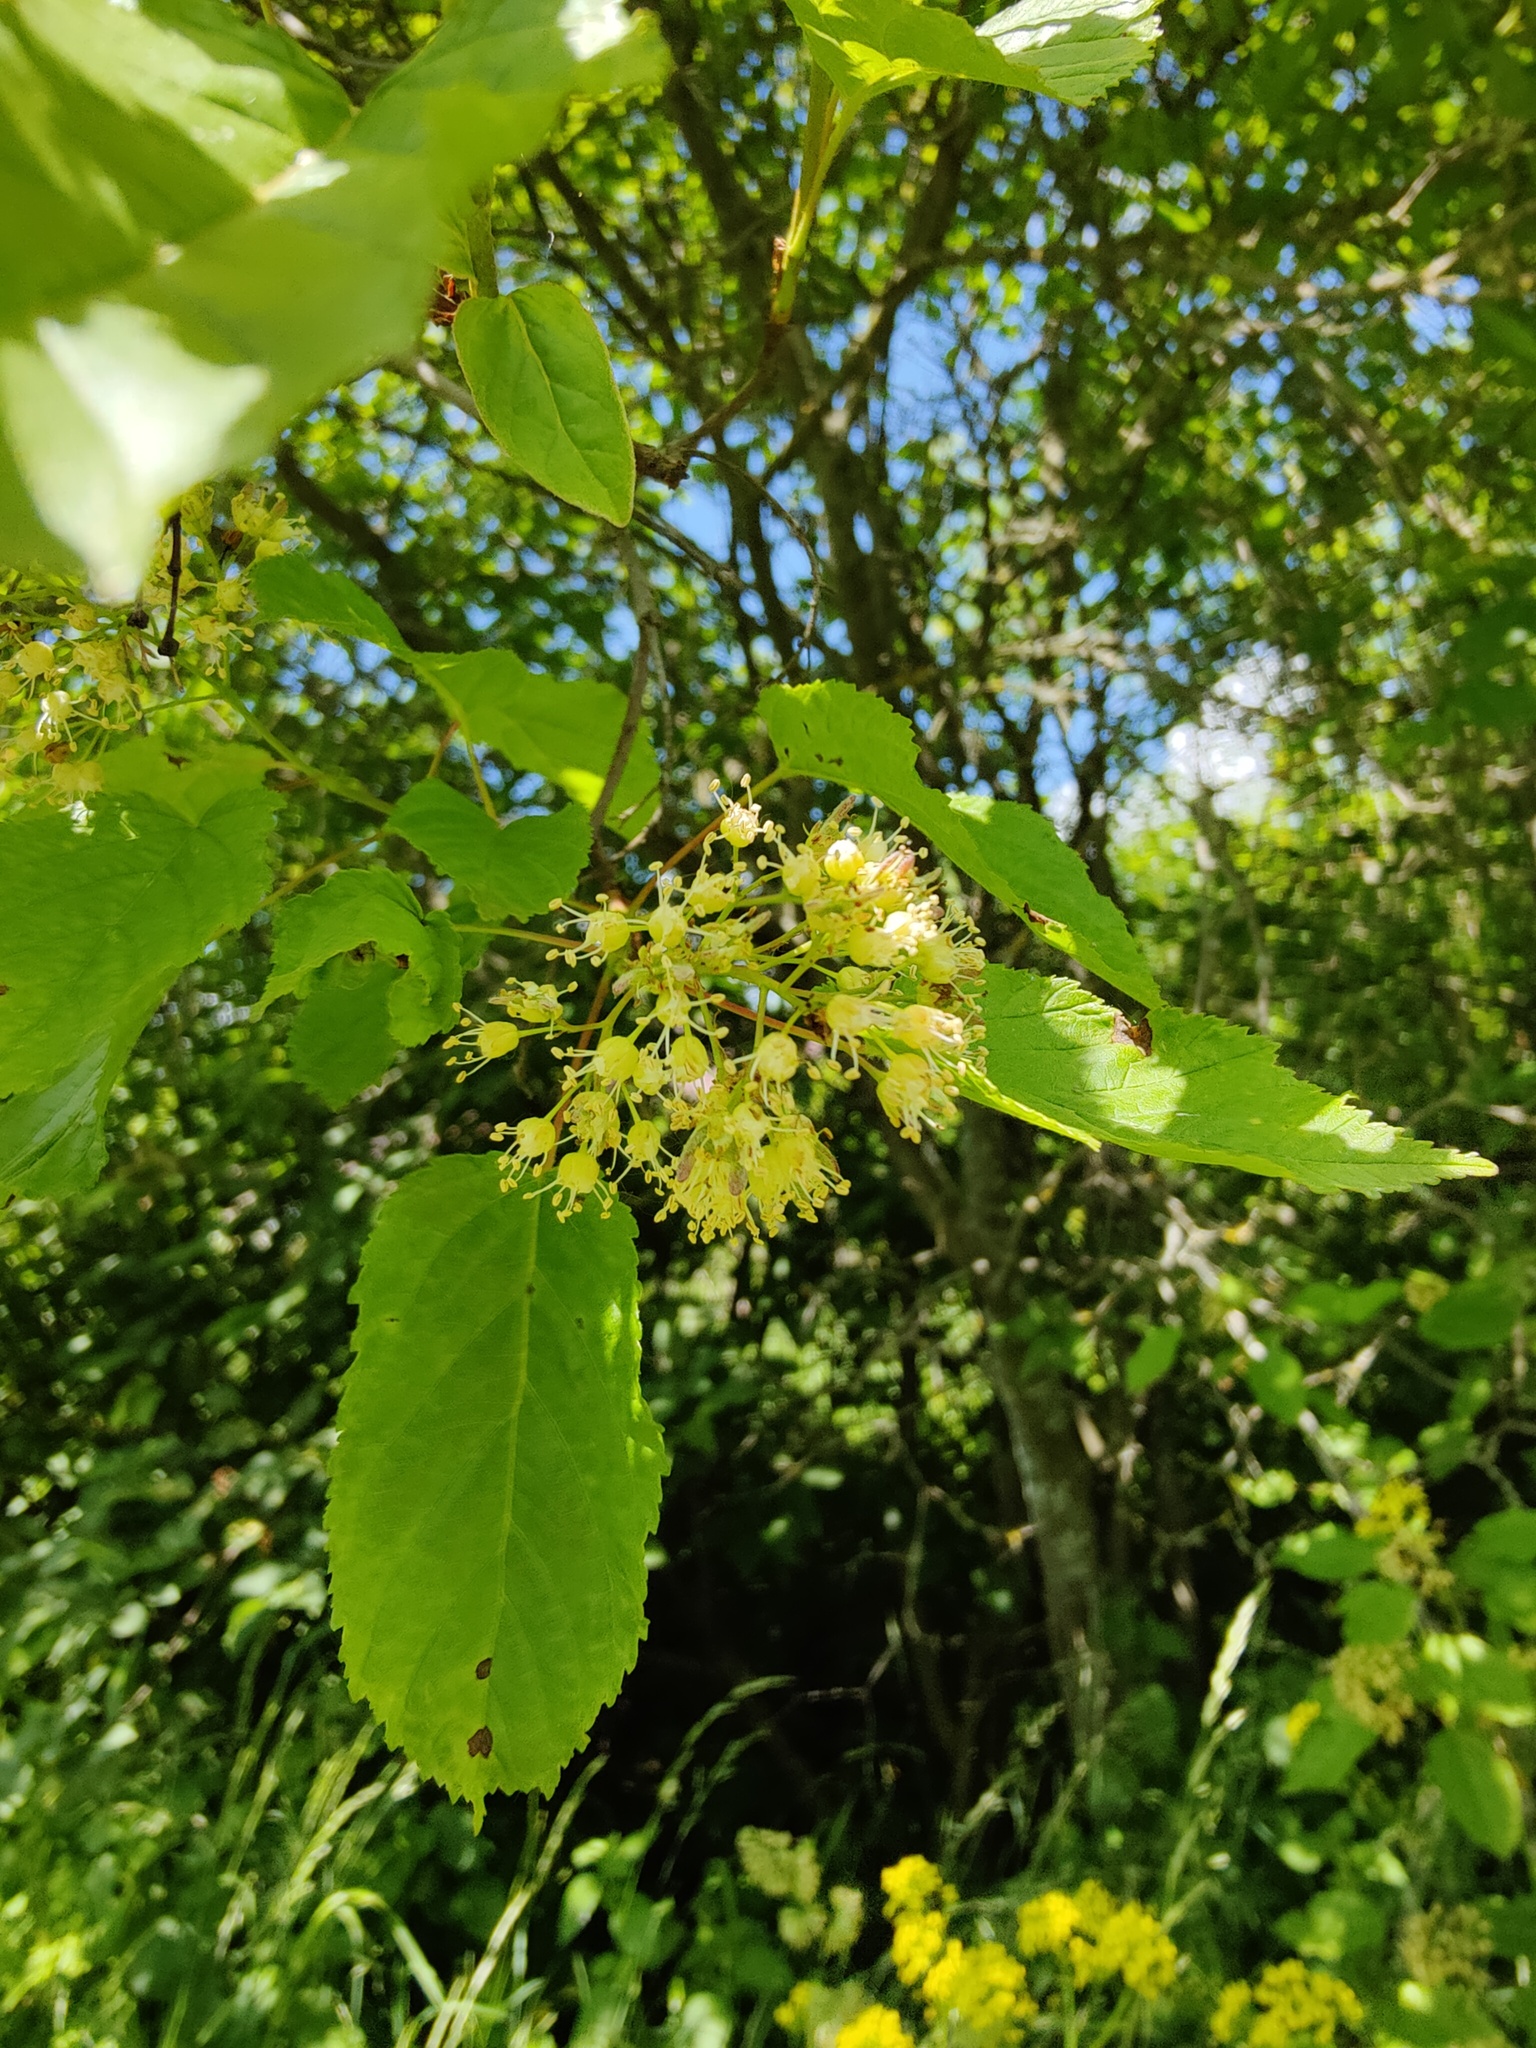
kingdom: Plantae
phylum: Tracheophyta
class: Magnoliopsida
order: Sapindales
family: Sapindaceae
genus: Acer
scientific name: Acer tataricum
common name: Tartar maple
